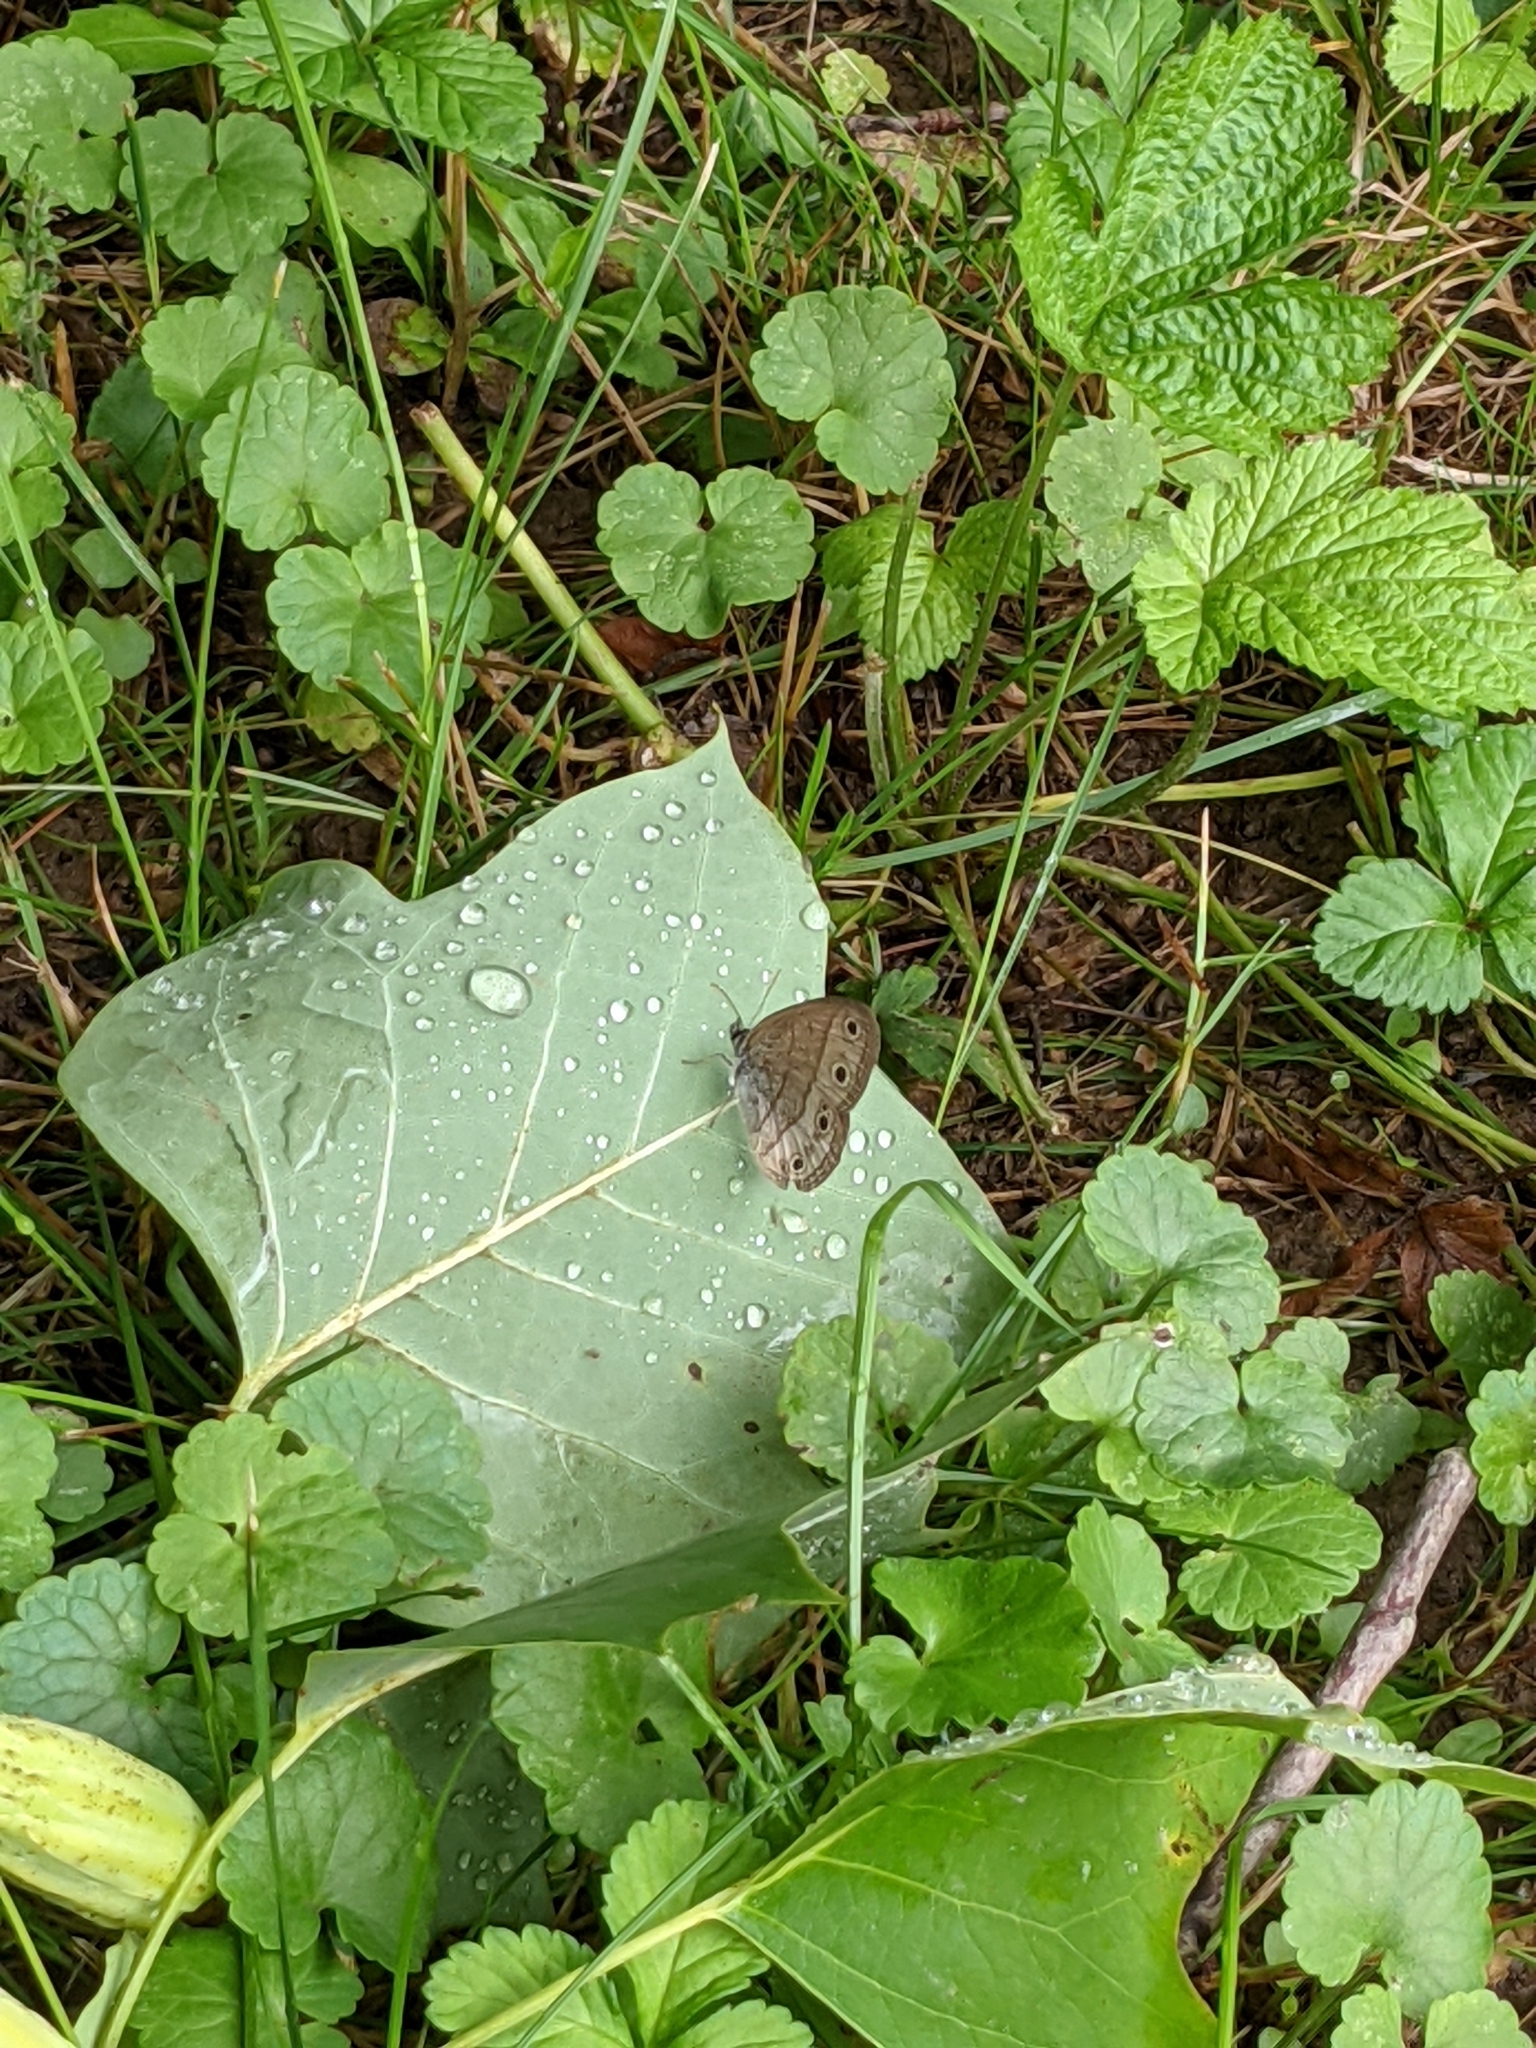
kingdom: Animalia
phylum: Arthropoda
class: Insecta
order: Lepidoptera
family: Nymphalidae
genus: Euptychia
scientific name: Euptychia cymela
